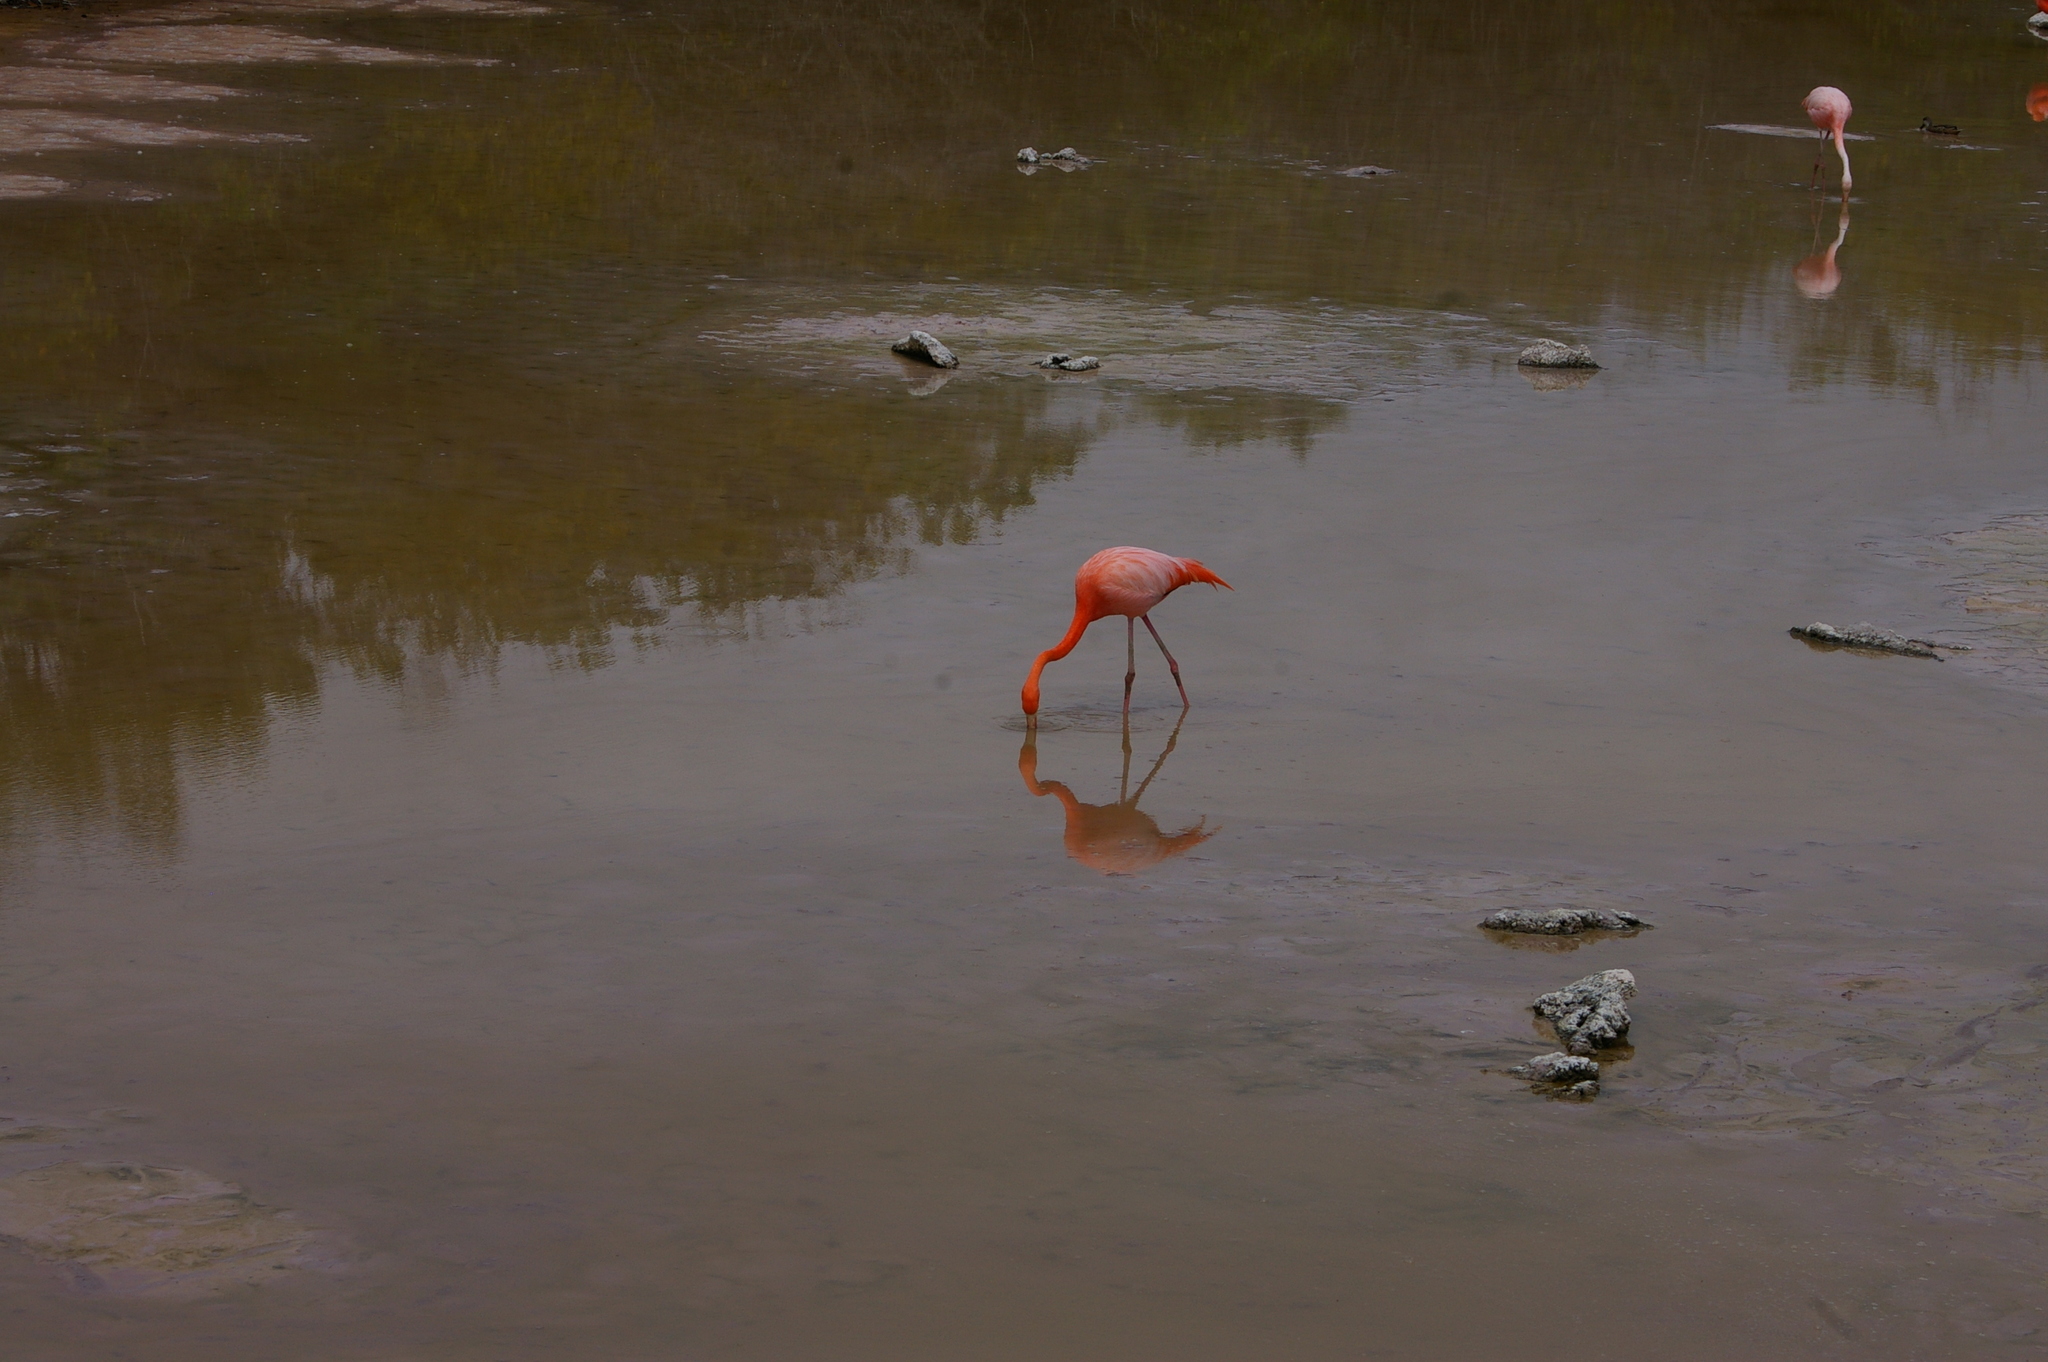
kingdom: Animalia
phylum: Chordata
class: Aves
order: Phoenicopteriformes
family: Phoenicopteridae
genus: Phoenicopterus
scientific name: Phoenicopterus ruber
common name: American flamingo
